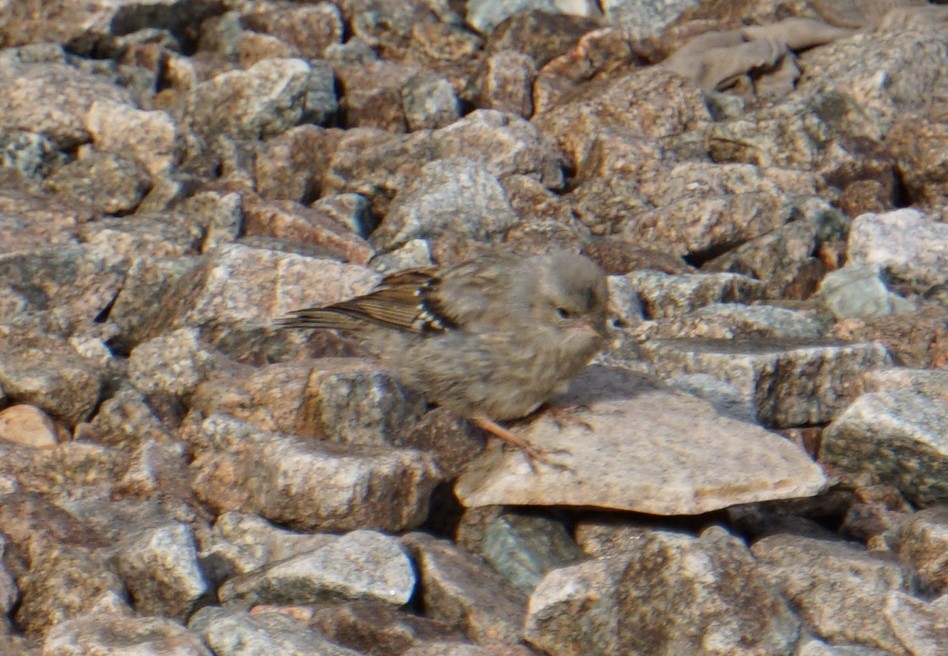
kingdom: Animalia
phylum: Chordata
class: Aves
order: Passeriformes
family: Prunellidae
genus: Prunella
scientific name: Prunella collaris
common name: Alpine accentor
